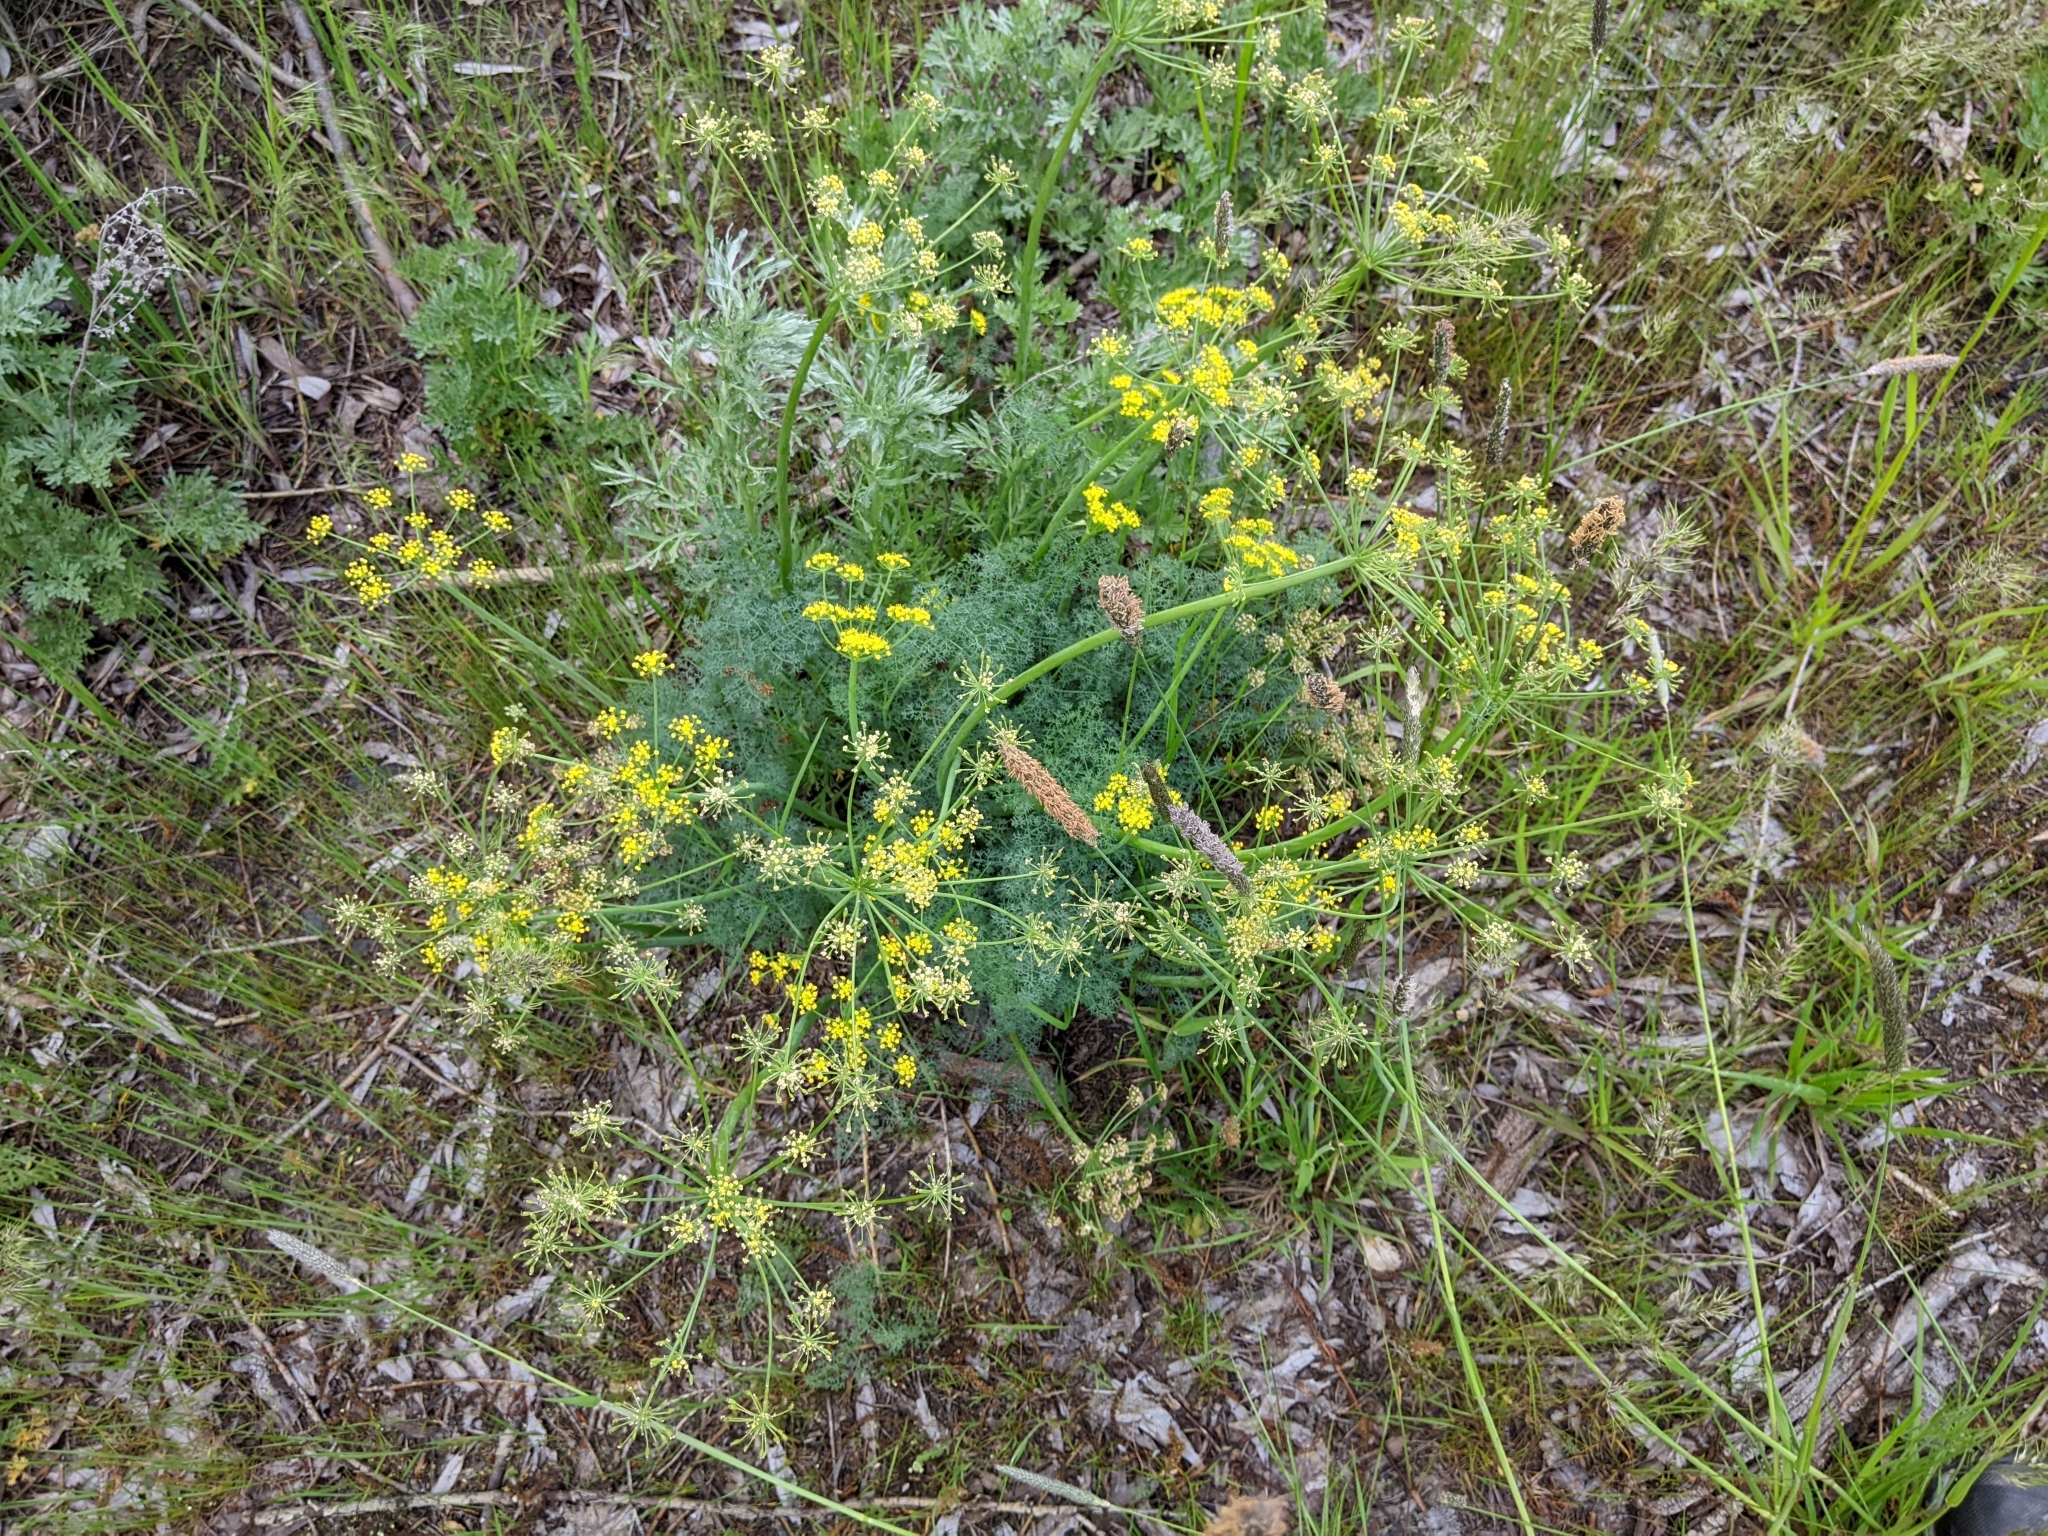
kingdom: Plantae
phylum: Tracheophyta
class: Magnoliopsida
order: Apiales
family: Apiaceae
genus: Lomatium
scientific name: Lomatium papilioniferum
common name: Butterfly lomatium
